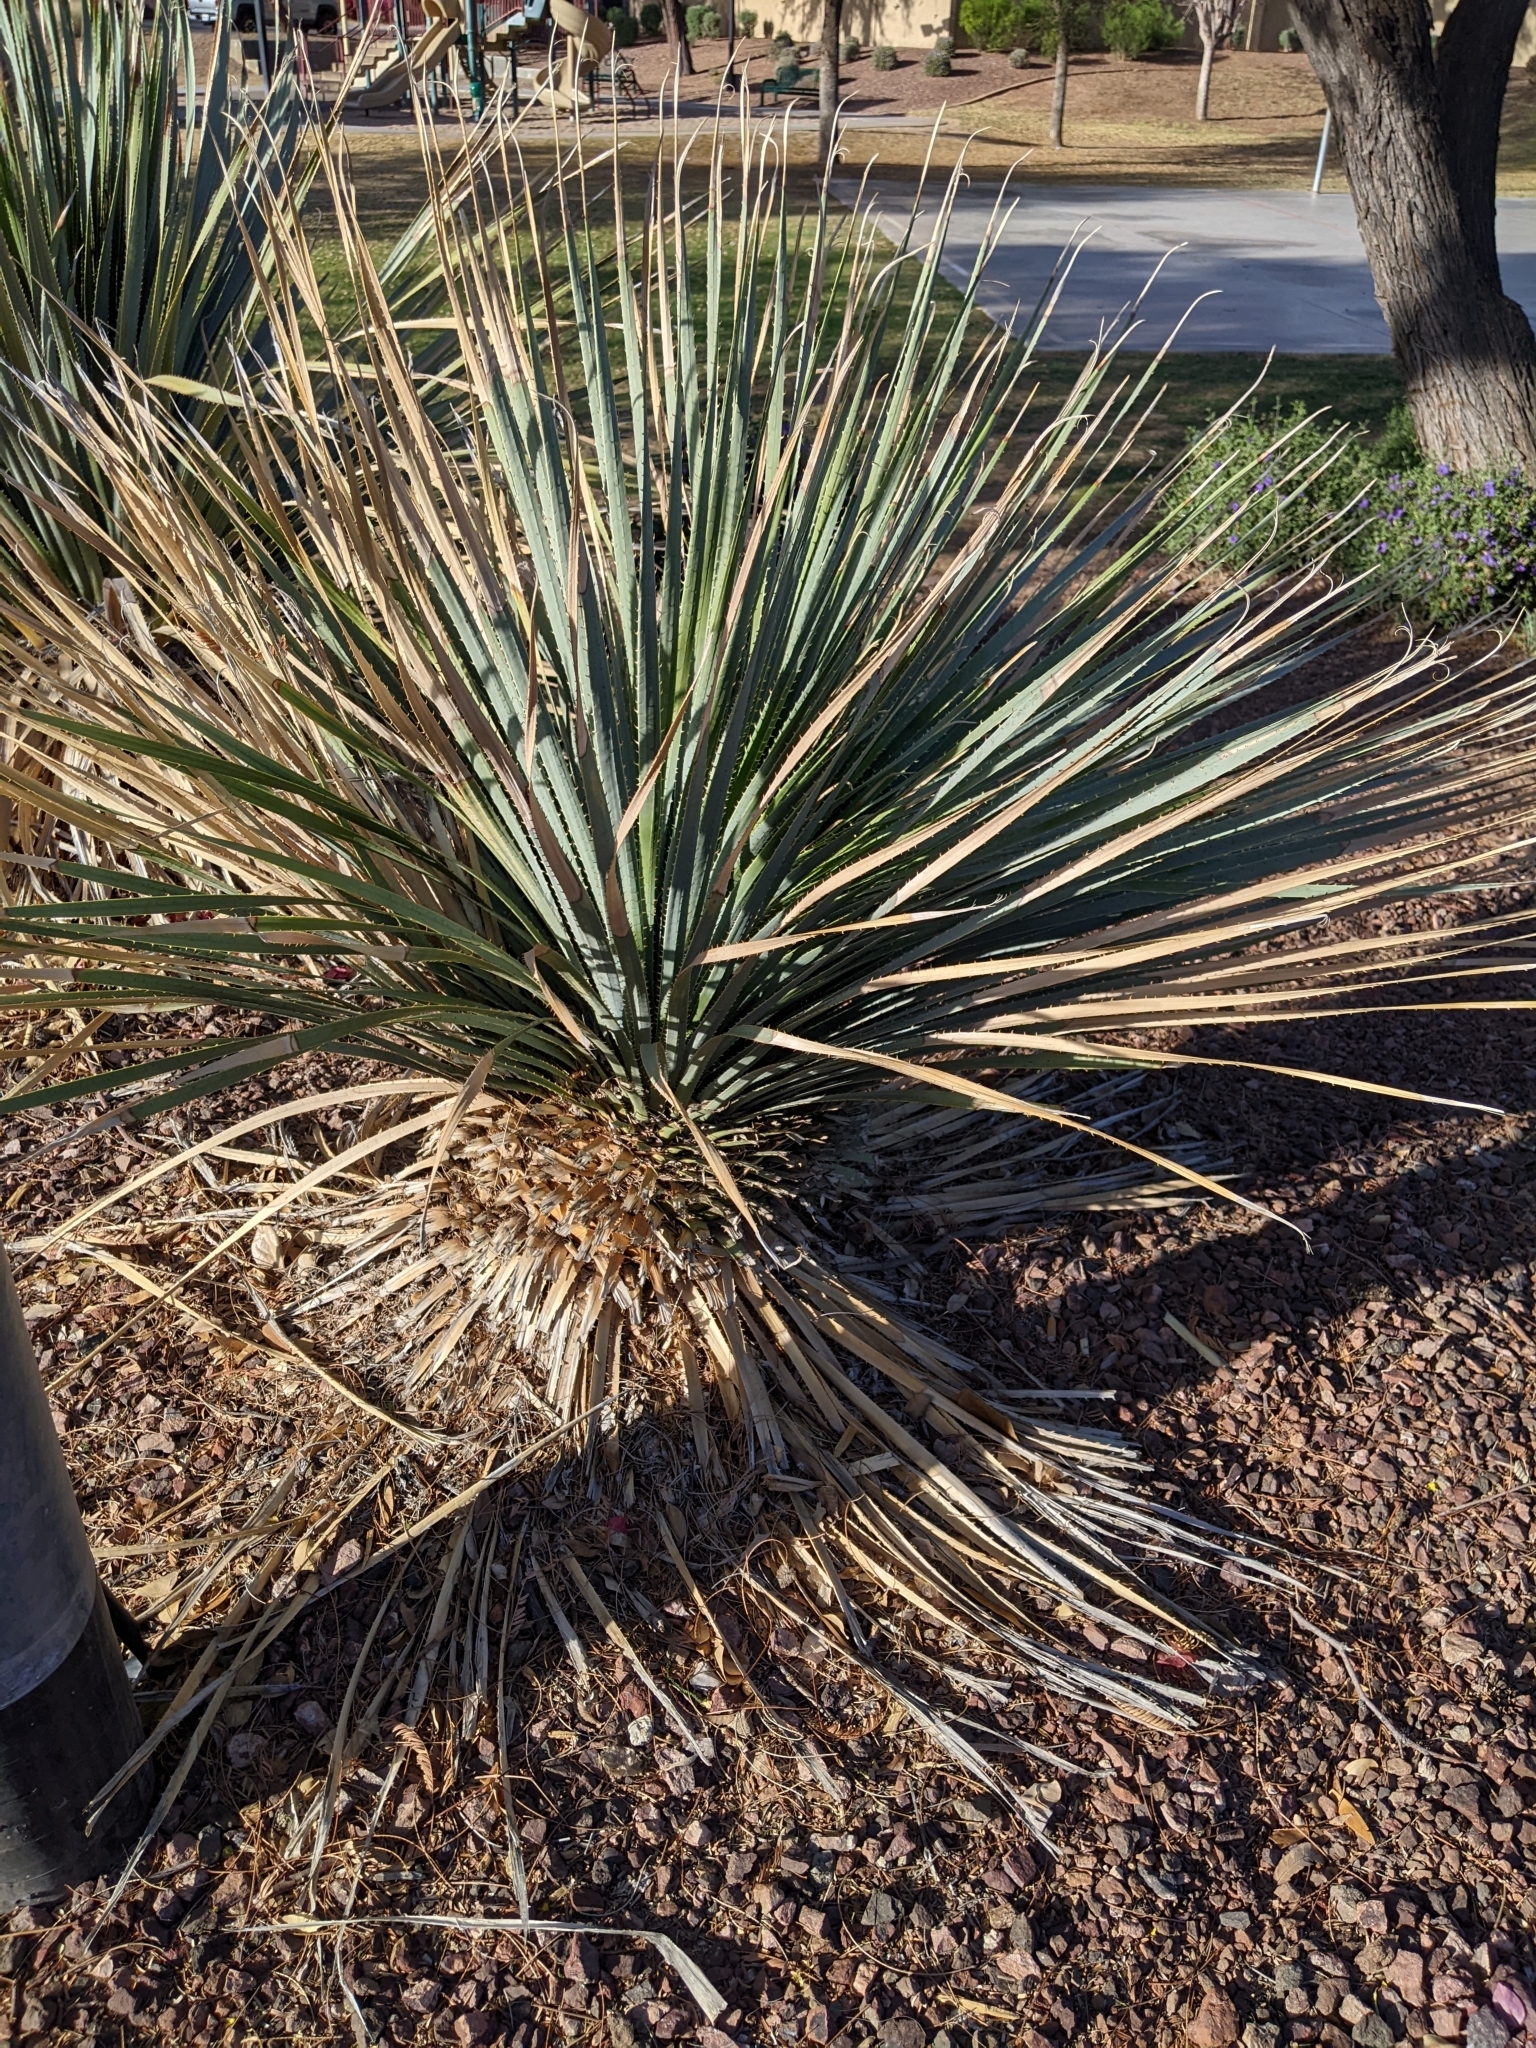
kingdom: Plantae
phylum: Tracheophyta
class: Liliopsida
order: Asparagales
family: Asparagaceae
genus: Dasylirion
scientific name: Dasylirion wheeleri
